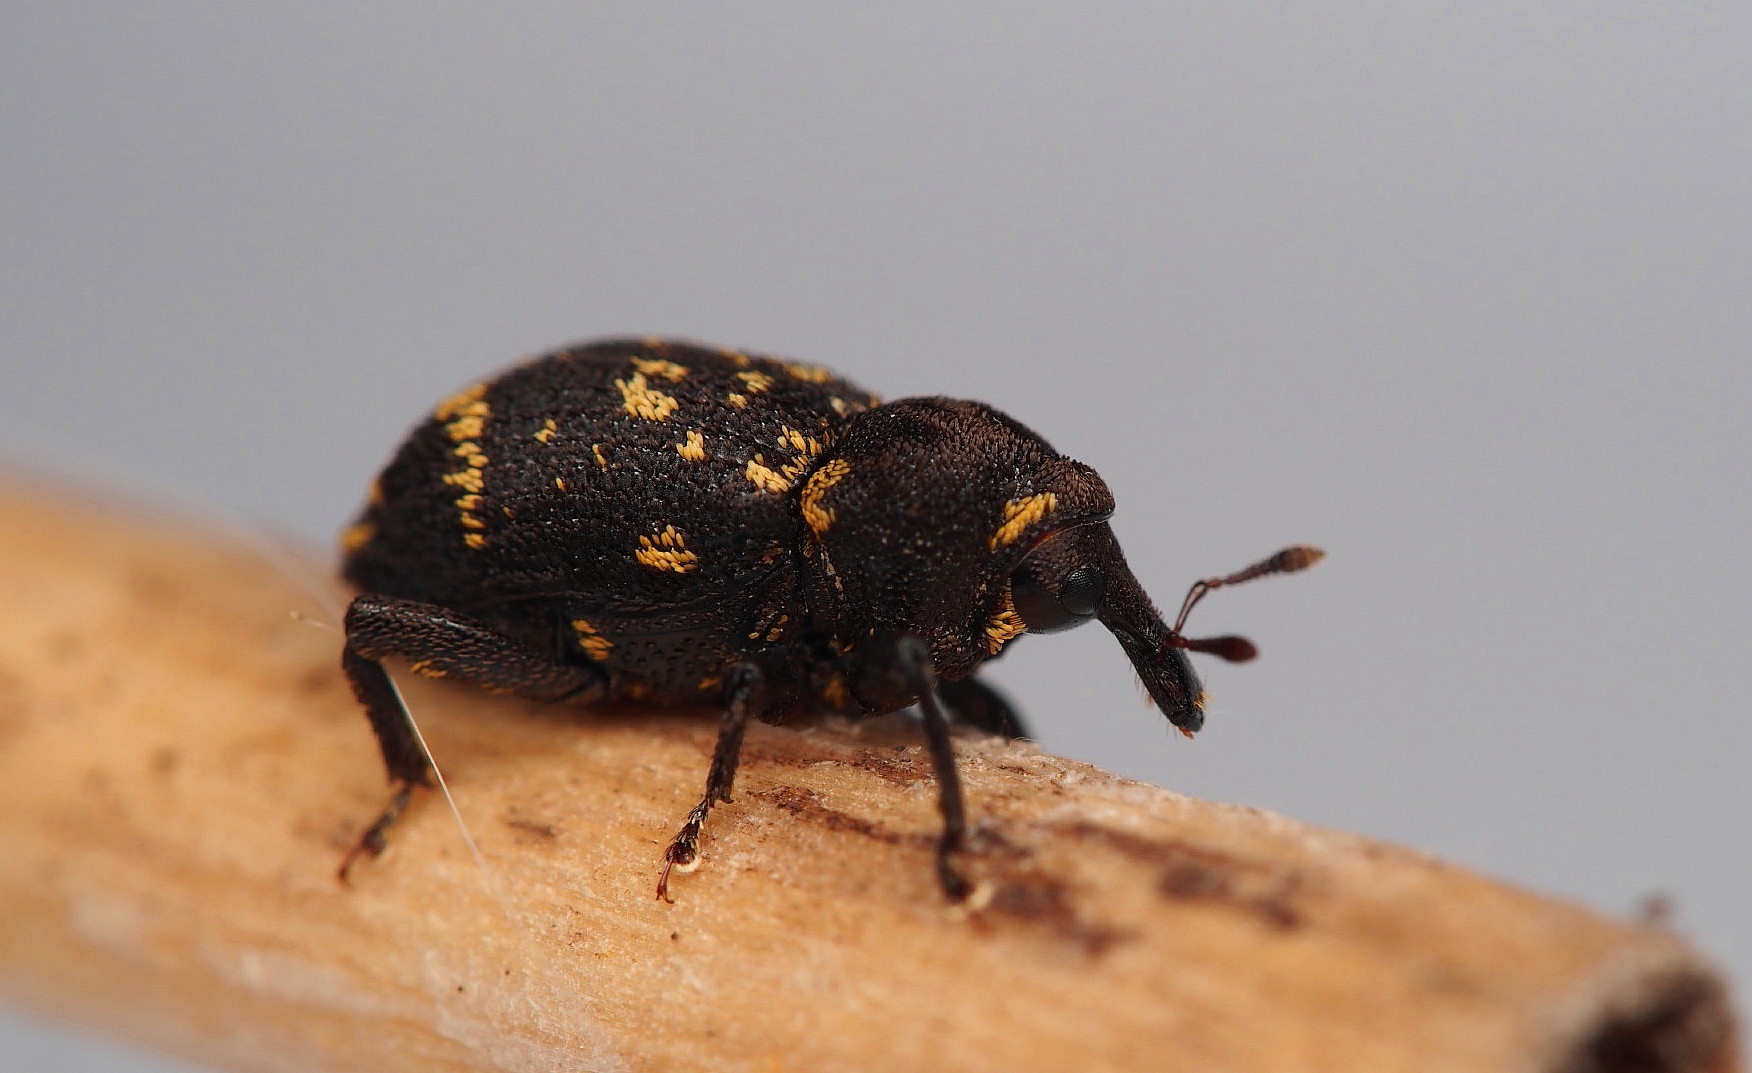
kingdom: Animalia
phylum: Arthropoda
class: Insecta
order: Coleoptera
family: Curculionidae
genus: Oreda
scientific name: Oreda notata
